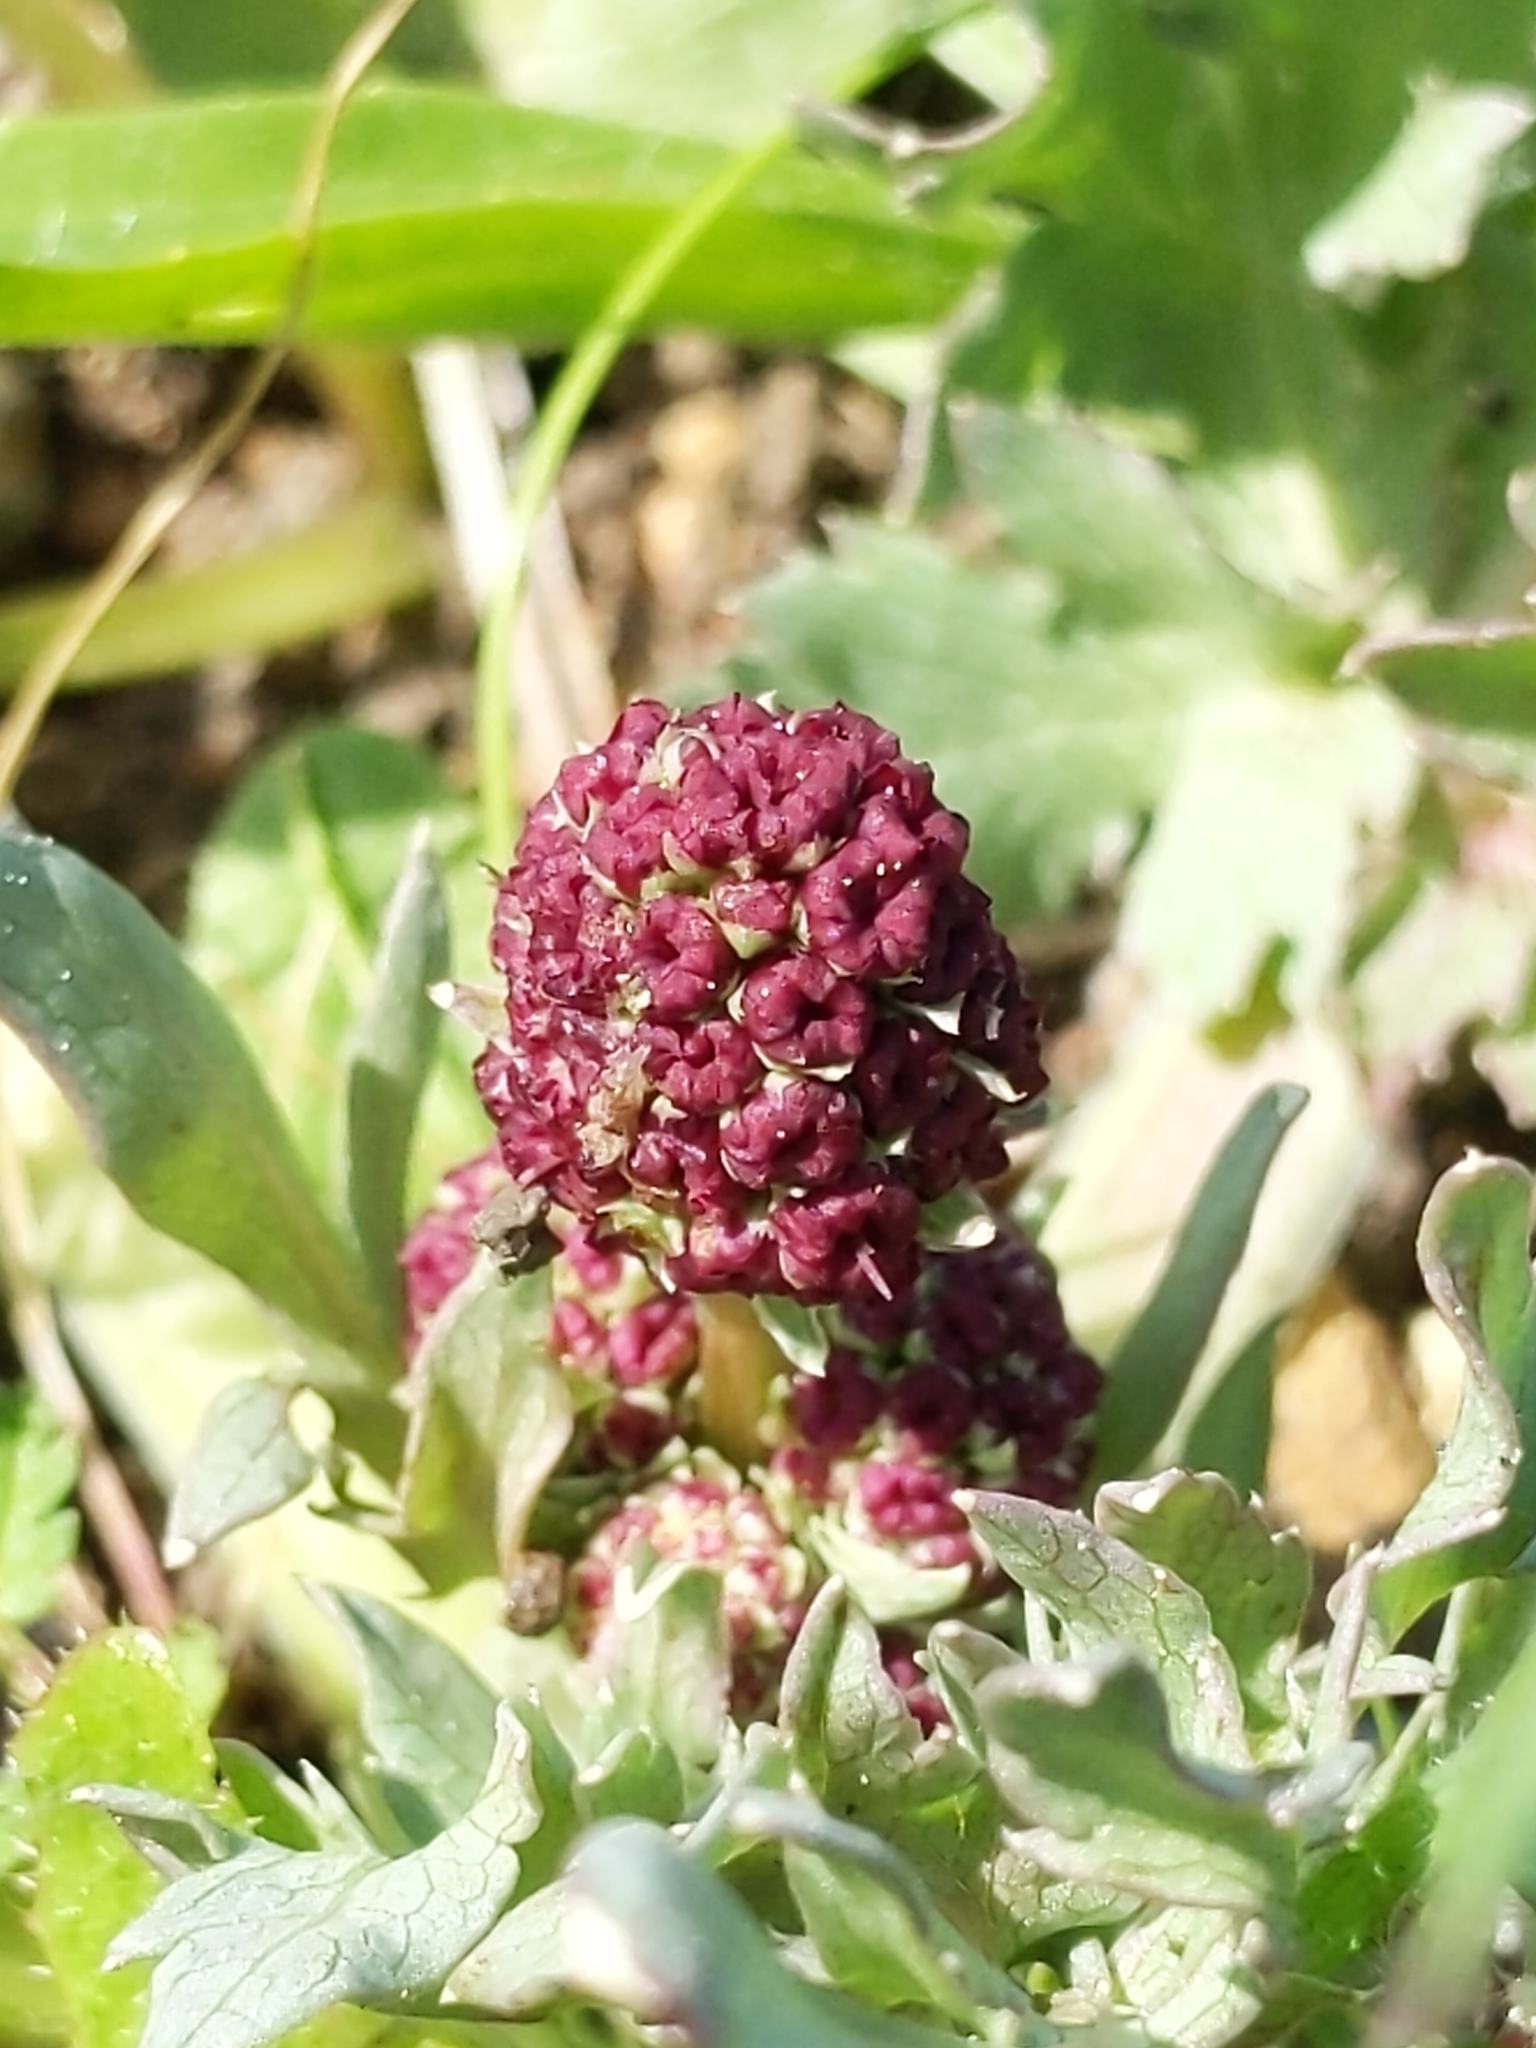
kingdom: Plantae
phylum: Tracheophyta
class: Magnoliopsida
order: Apiales
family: Apiaceae
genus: Sanicula
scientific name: Sanicula bipinnatifida
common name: Shoe-buttons
